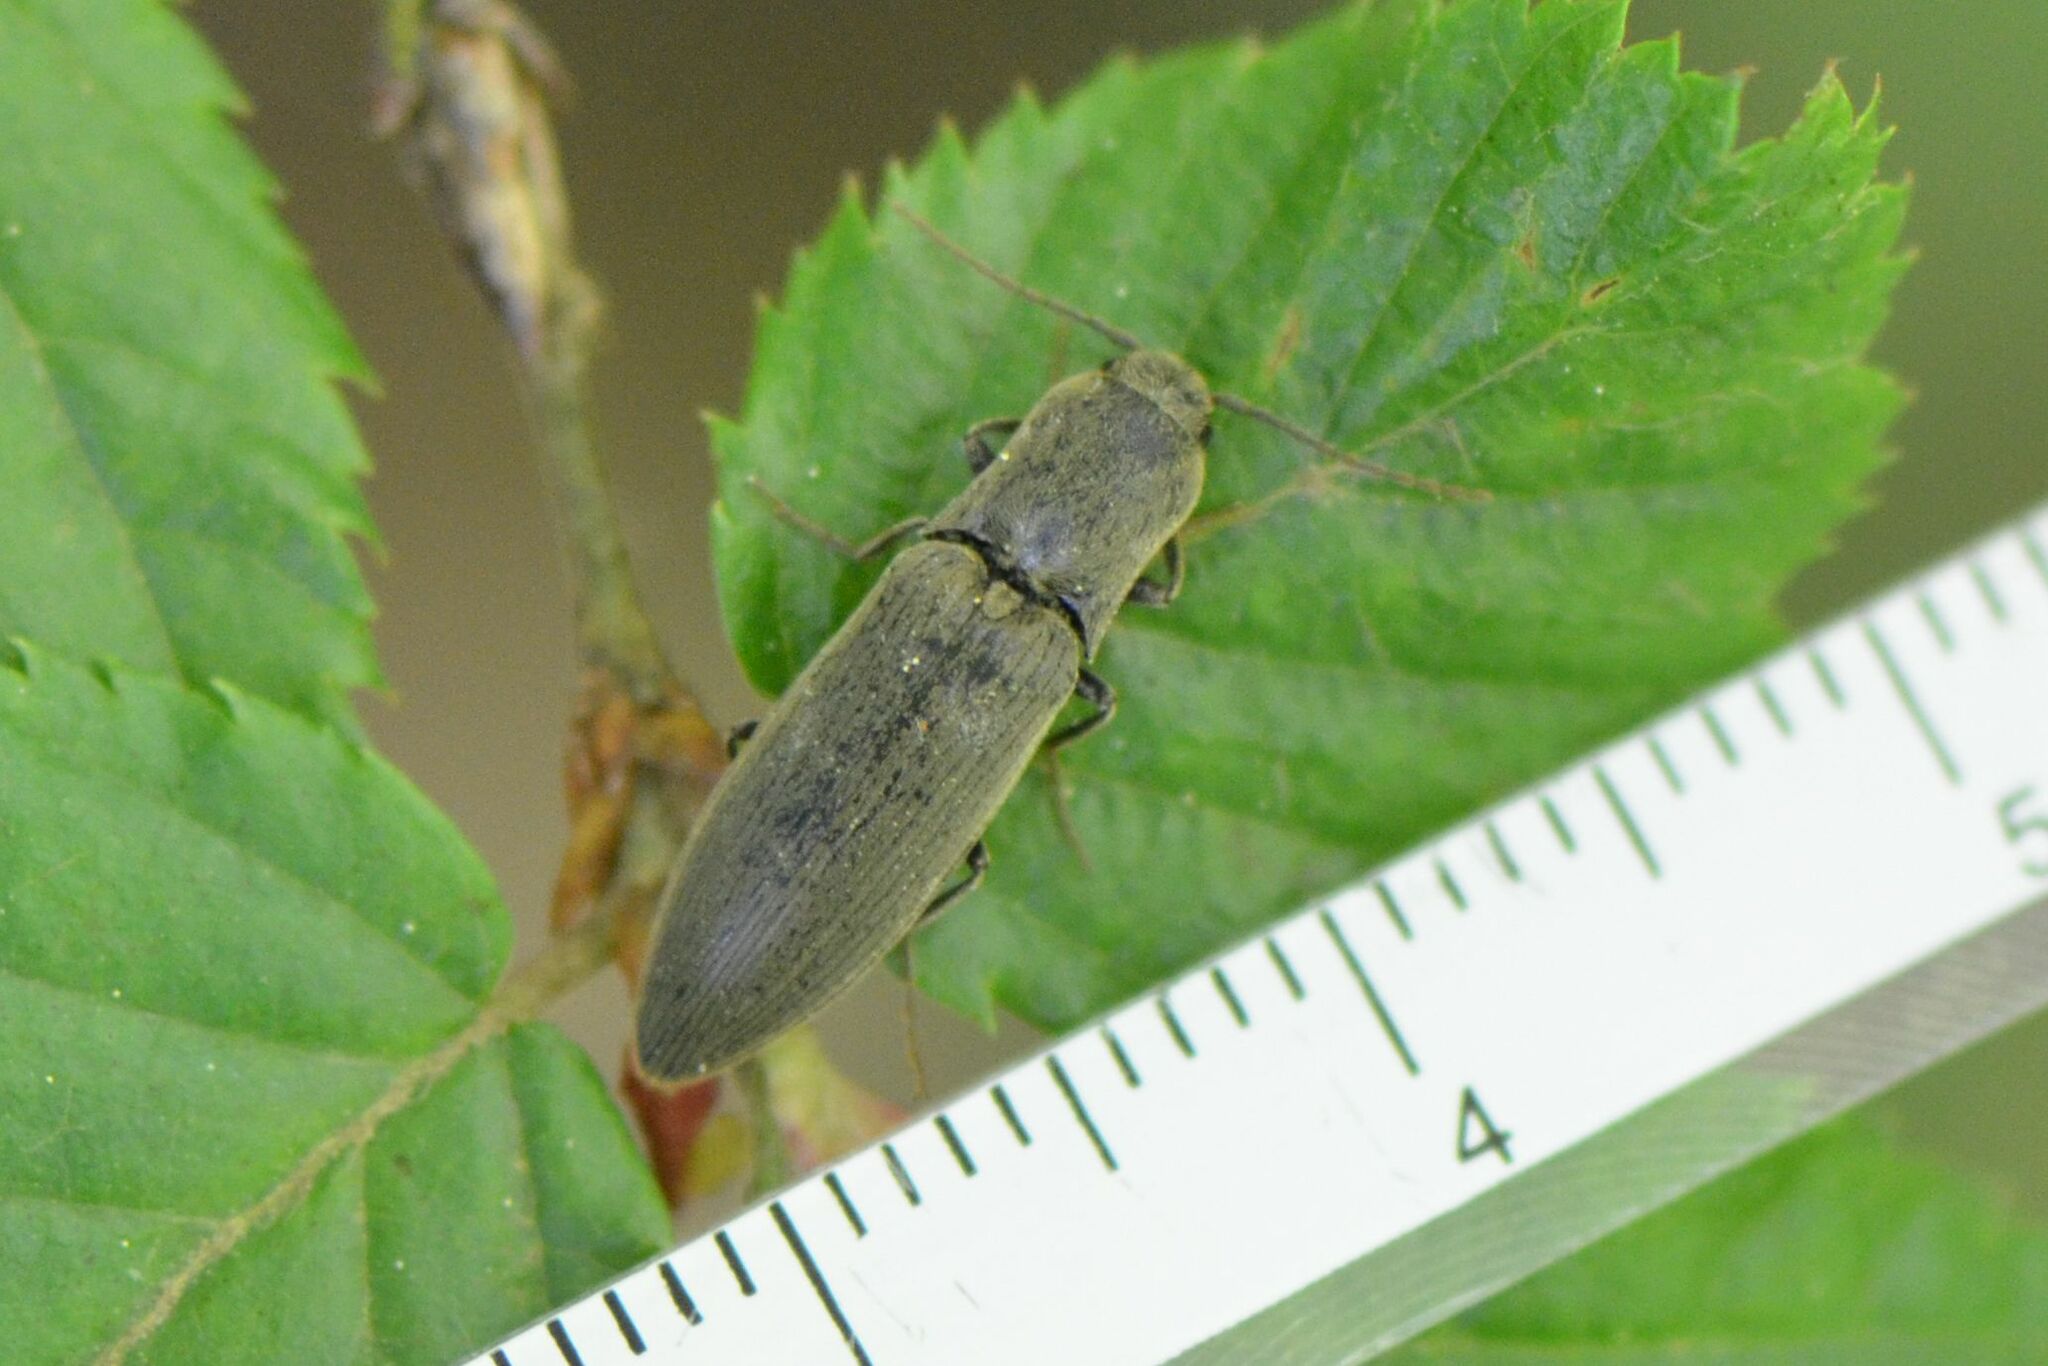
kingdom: Animalia
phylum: Arthropoda
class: Insecta
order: Coleoptera
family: Elateridae
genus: Agriotes
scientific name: Agriotes pilosellus
